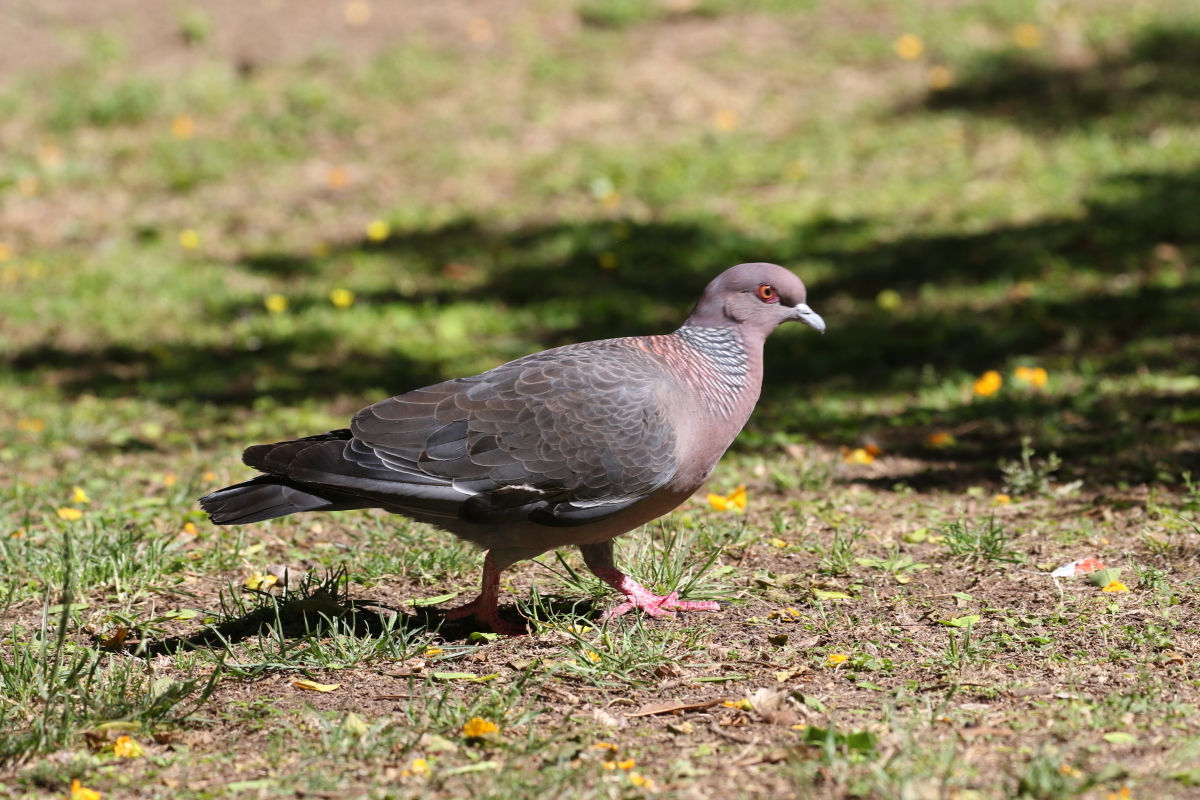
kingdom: Animalia
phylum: Chordata
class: Aves
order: Columbiformes
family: Columbidae
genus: Patagioenas
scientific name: Patagioenas picazuro
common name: Picazuro pigeon
